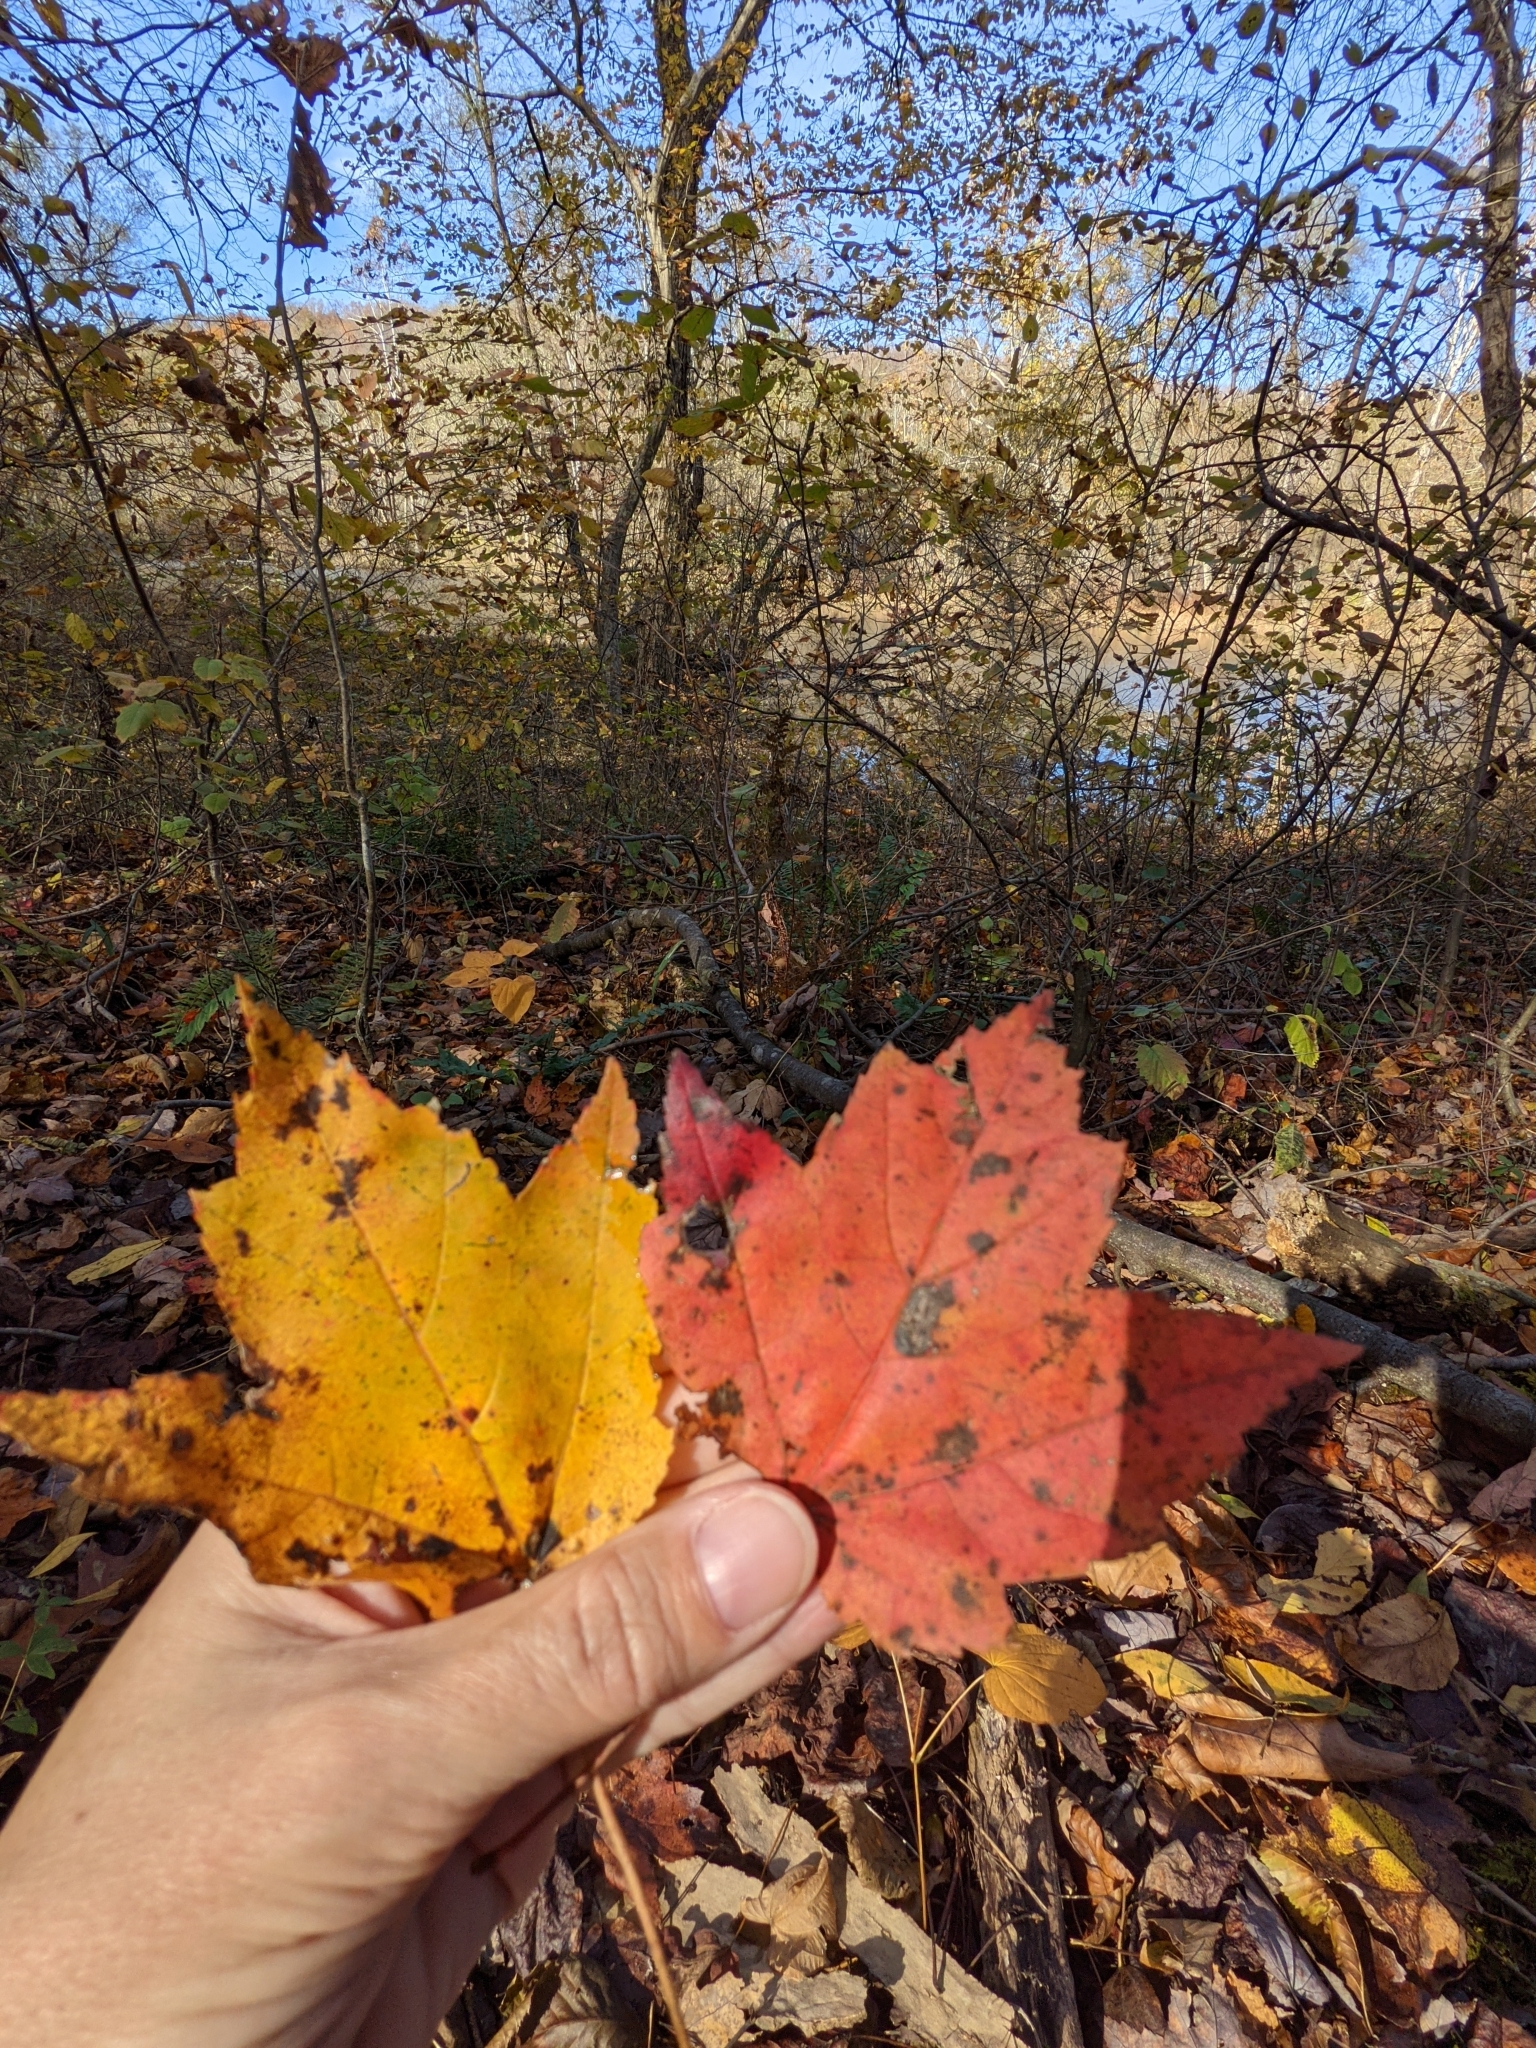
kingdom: Plantae
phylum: Tracheophyta
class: Magnoliopsida
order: Sapindales
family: Sapindaceae
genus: Acer
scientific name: Acer rubrum
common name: Red maple
